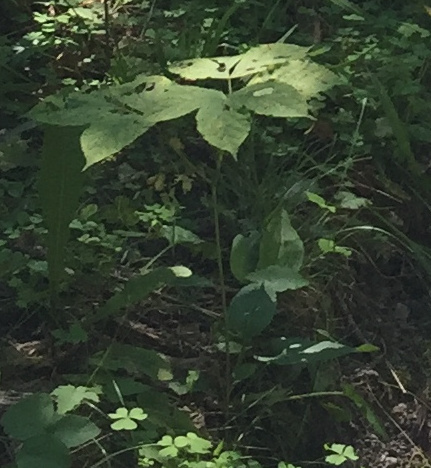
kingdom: Plantae
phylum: Tracheophyta
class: Magnoliopsida
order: Apiales
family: Araliaceae
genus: Aralia
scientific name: Aralia nudicaulis
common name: Wild sarsaparilla
